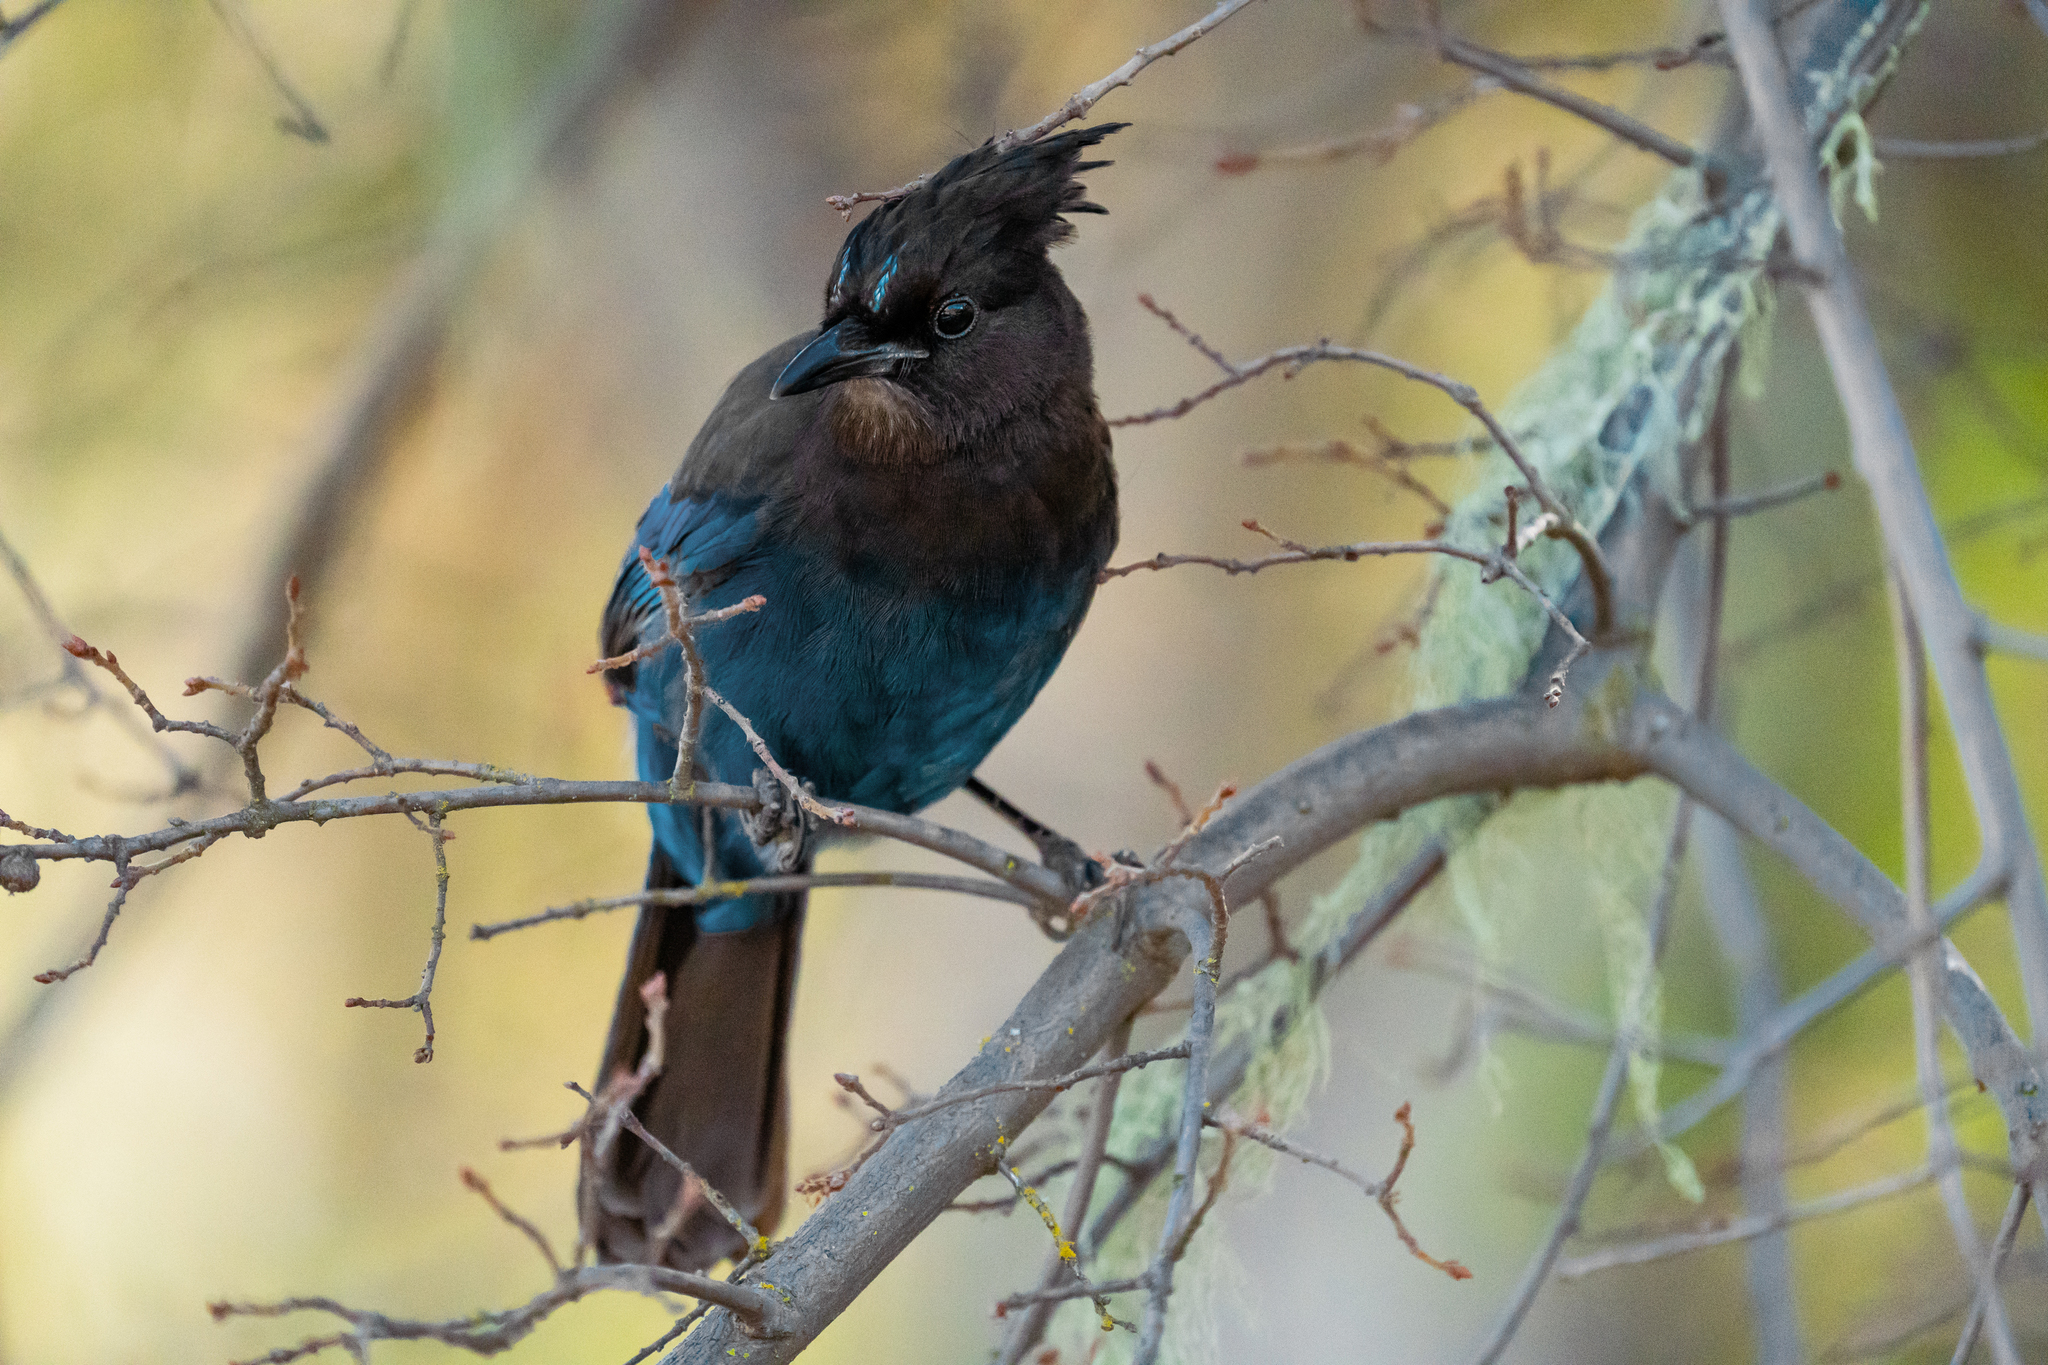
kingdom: Animalia
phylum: Chordata
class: Aves
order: Passeriformes
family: Corvidae
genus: Cyanocitta
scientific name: Cyanocitta stelleri
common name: Steller's jay
